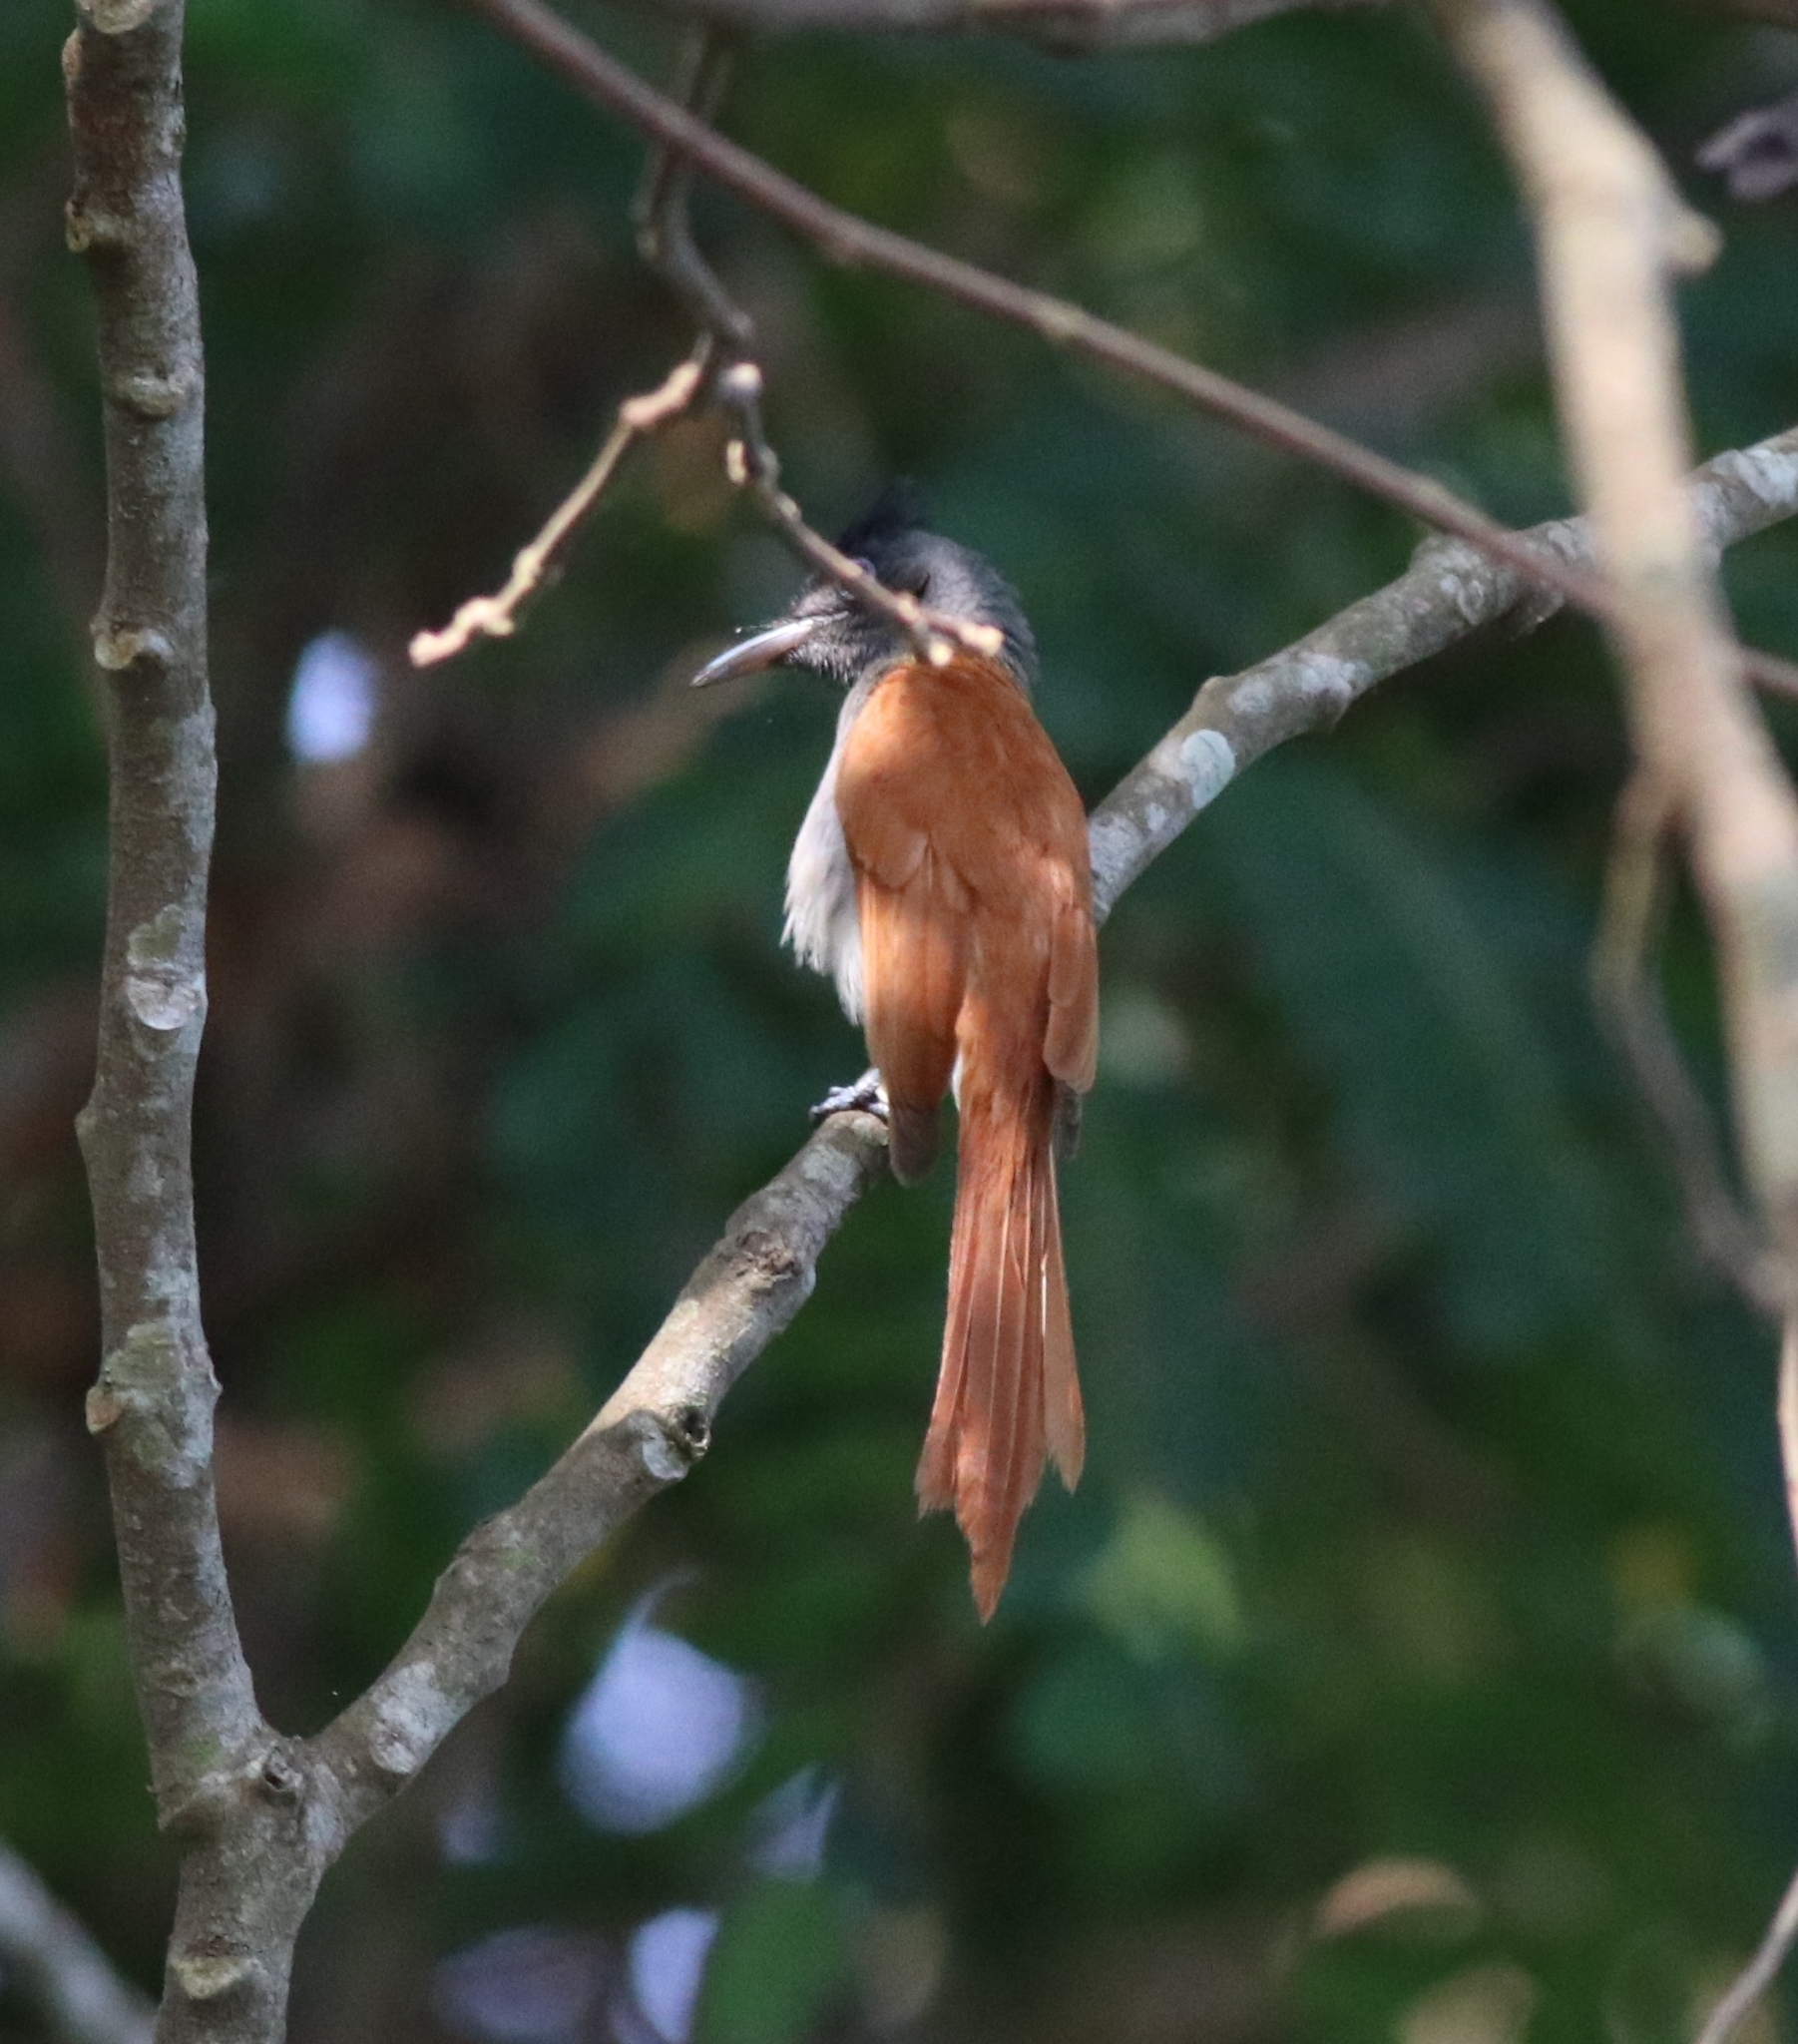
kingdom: Animalia
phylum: Chordata
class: Aves
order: Passeriformes
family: Monarchidae
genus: Terpsiphone
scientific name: Terpsiphone paradisi
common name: Indian paradise flycatcher
